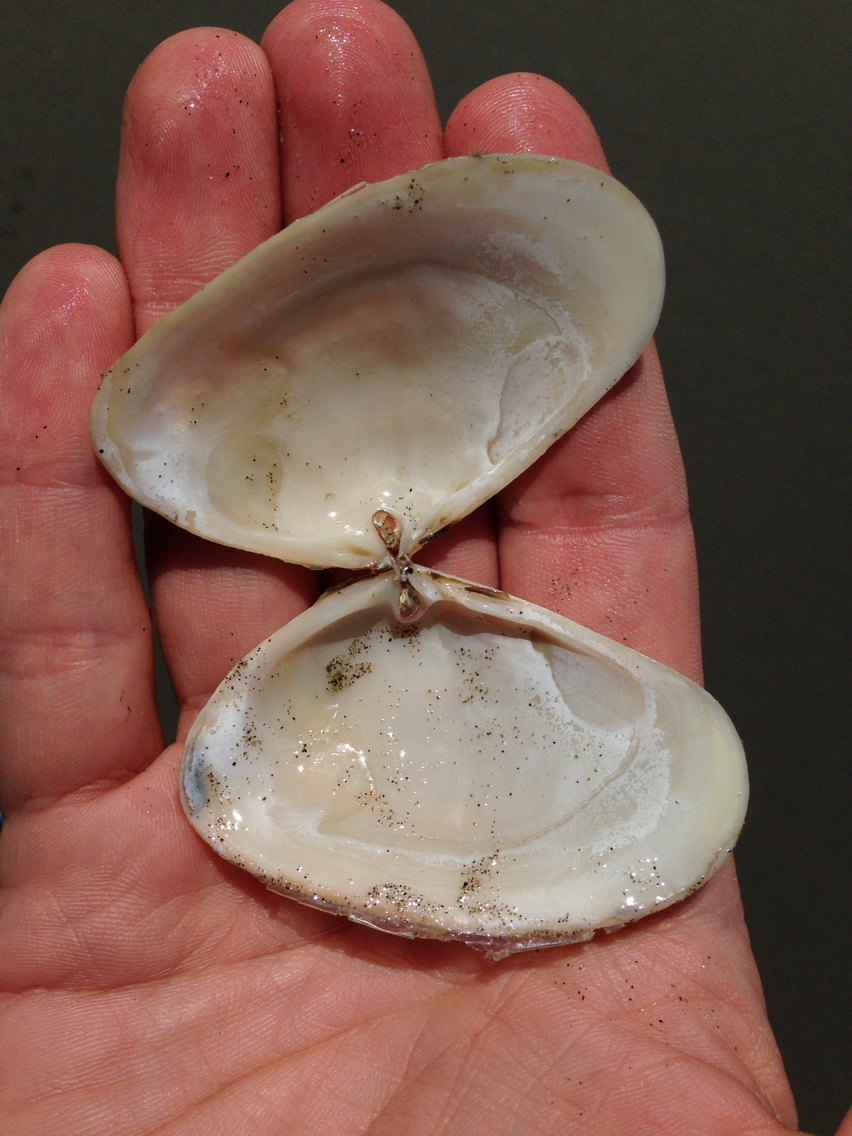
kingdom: Animalia
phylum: Mollusca
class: Bivalvia
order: Venerida
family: Mesodesmatidae
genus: Paphies
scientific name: Paphies donacina
